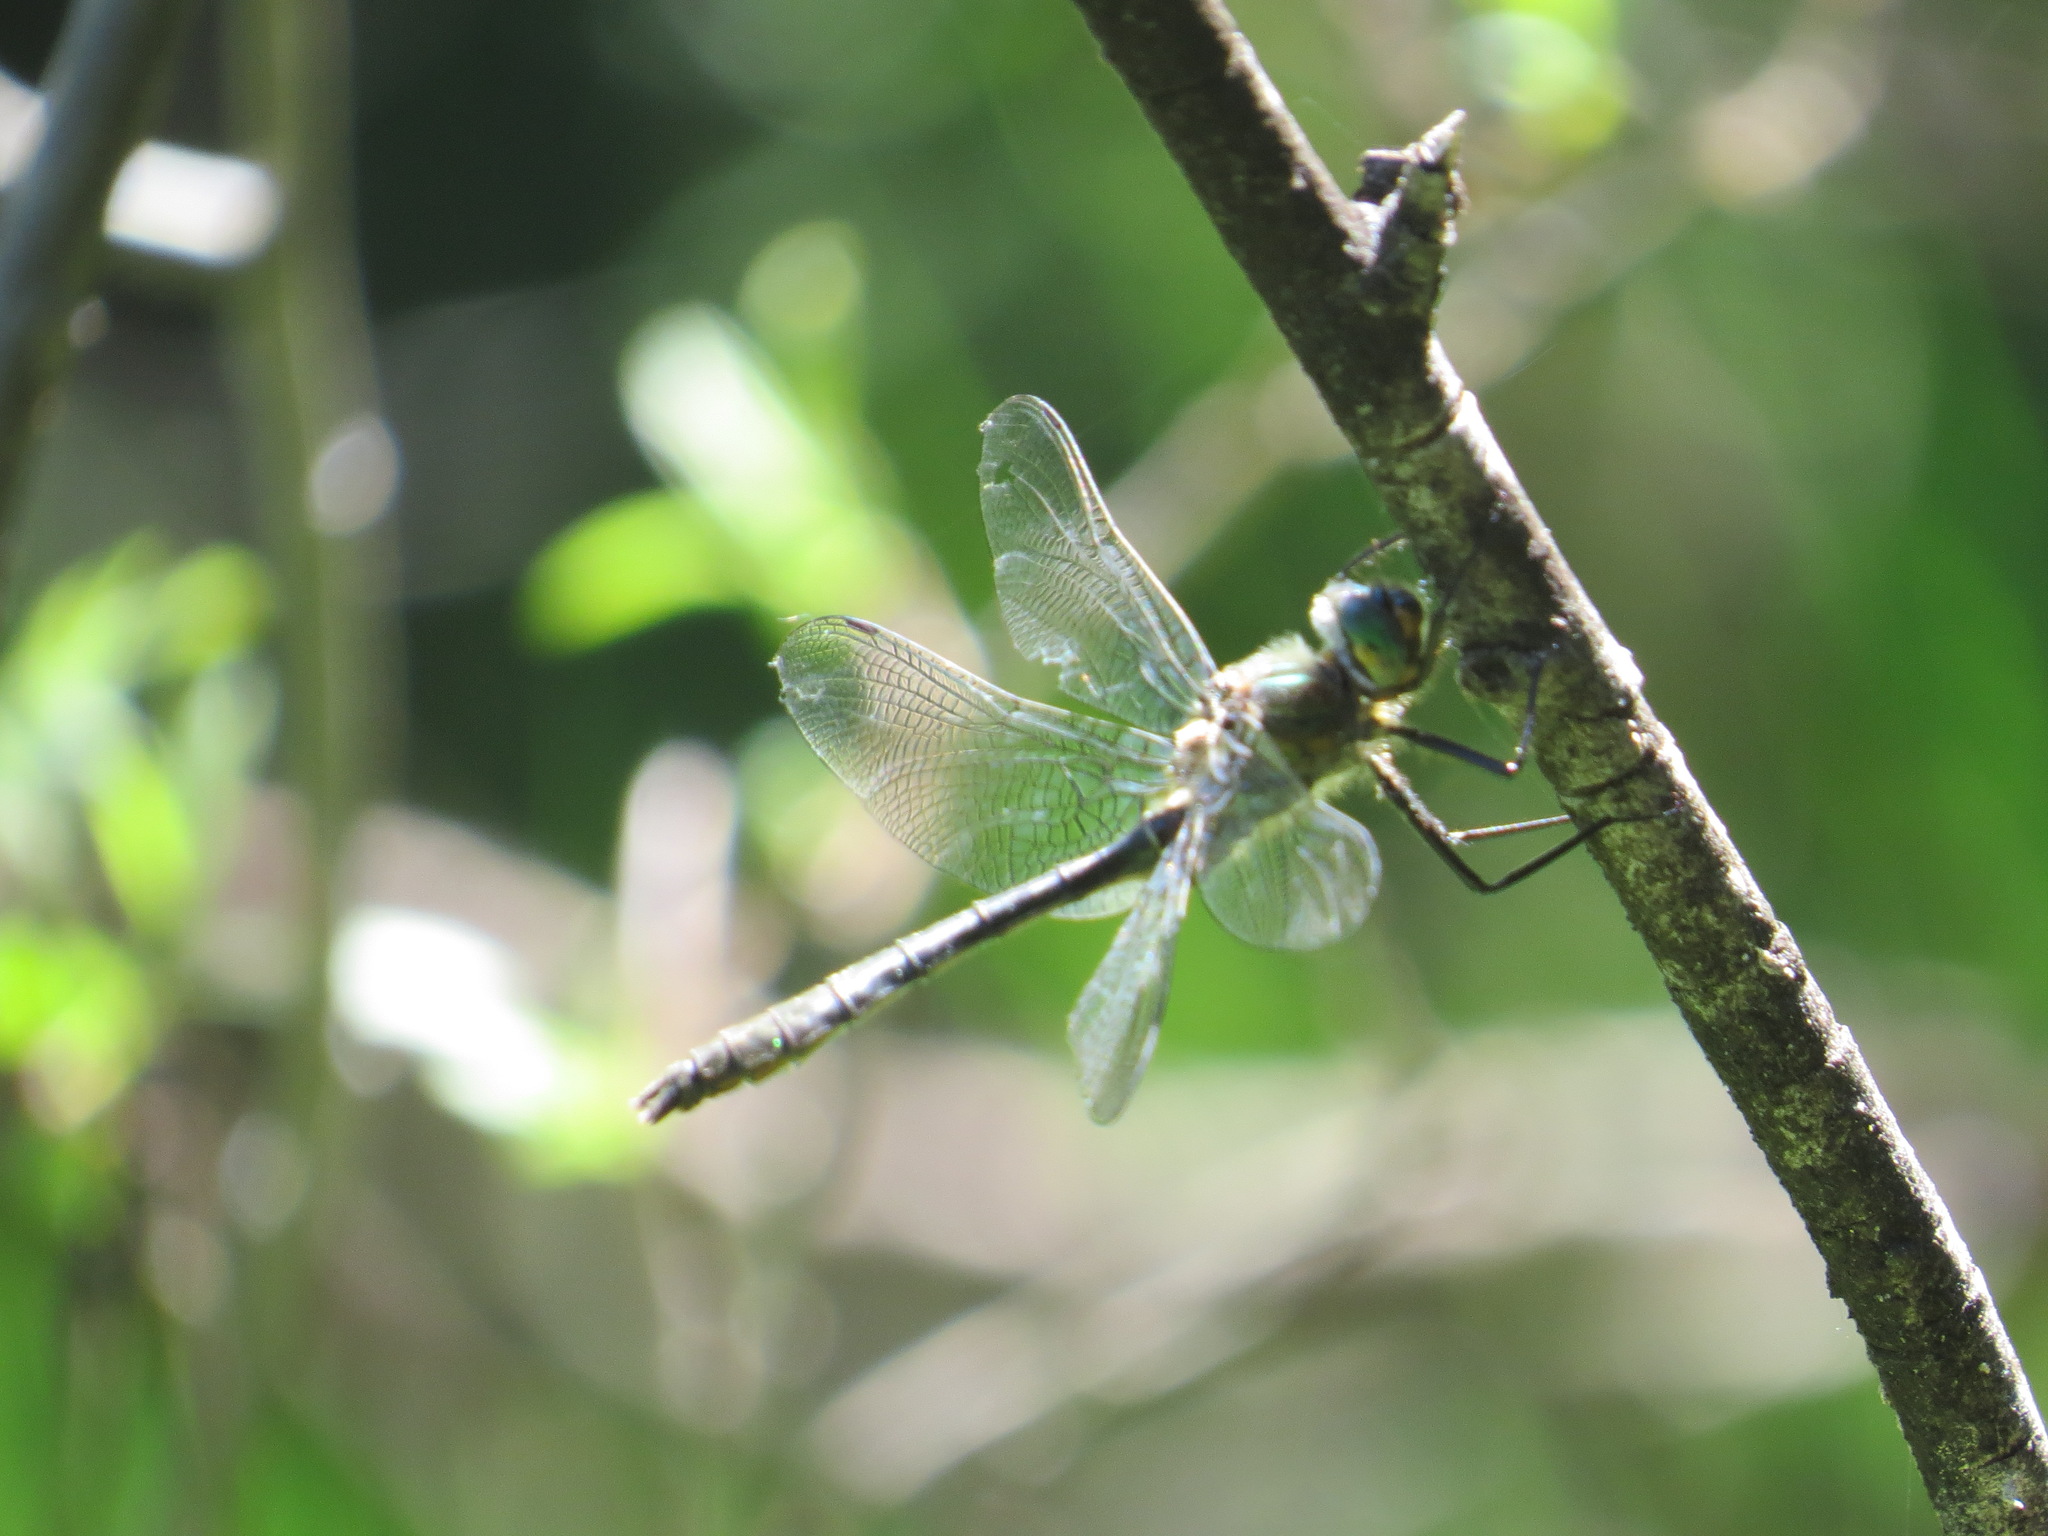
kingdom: Animalia
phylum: Arthropoda
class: Insecta
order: Odonata
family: Corduliidae
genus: Cordulia
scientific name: Cordulia shurtleffii
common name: American emerald
